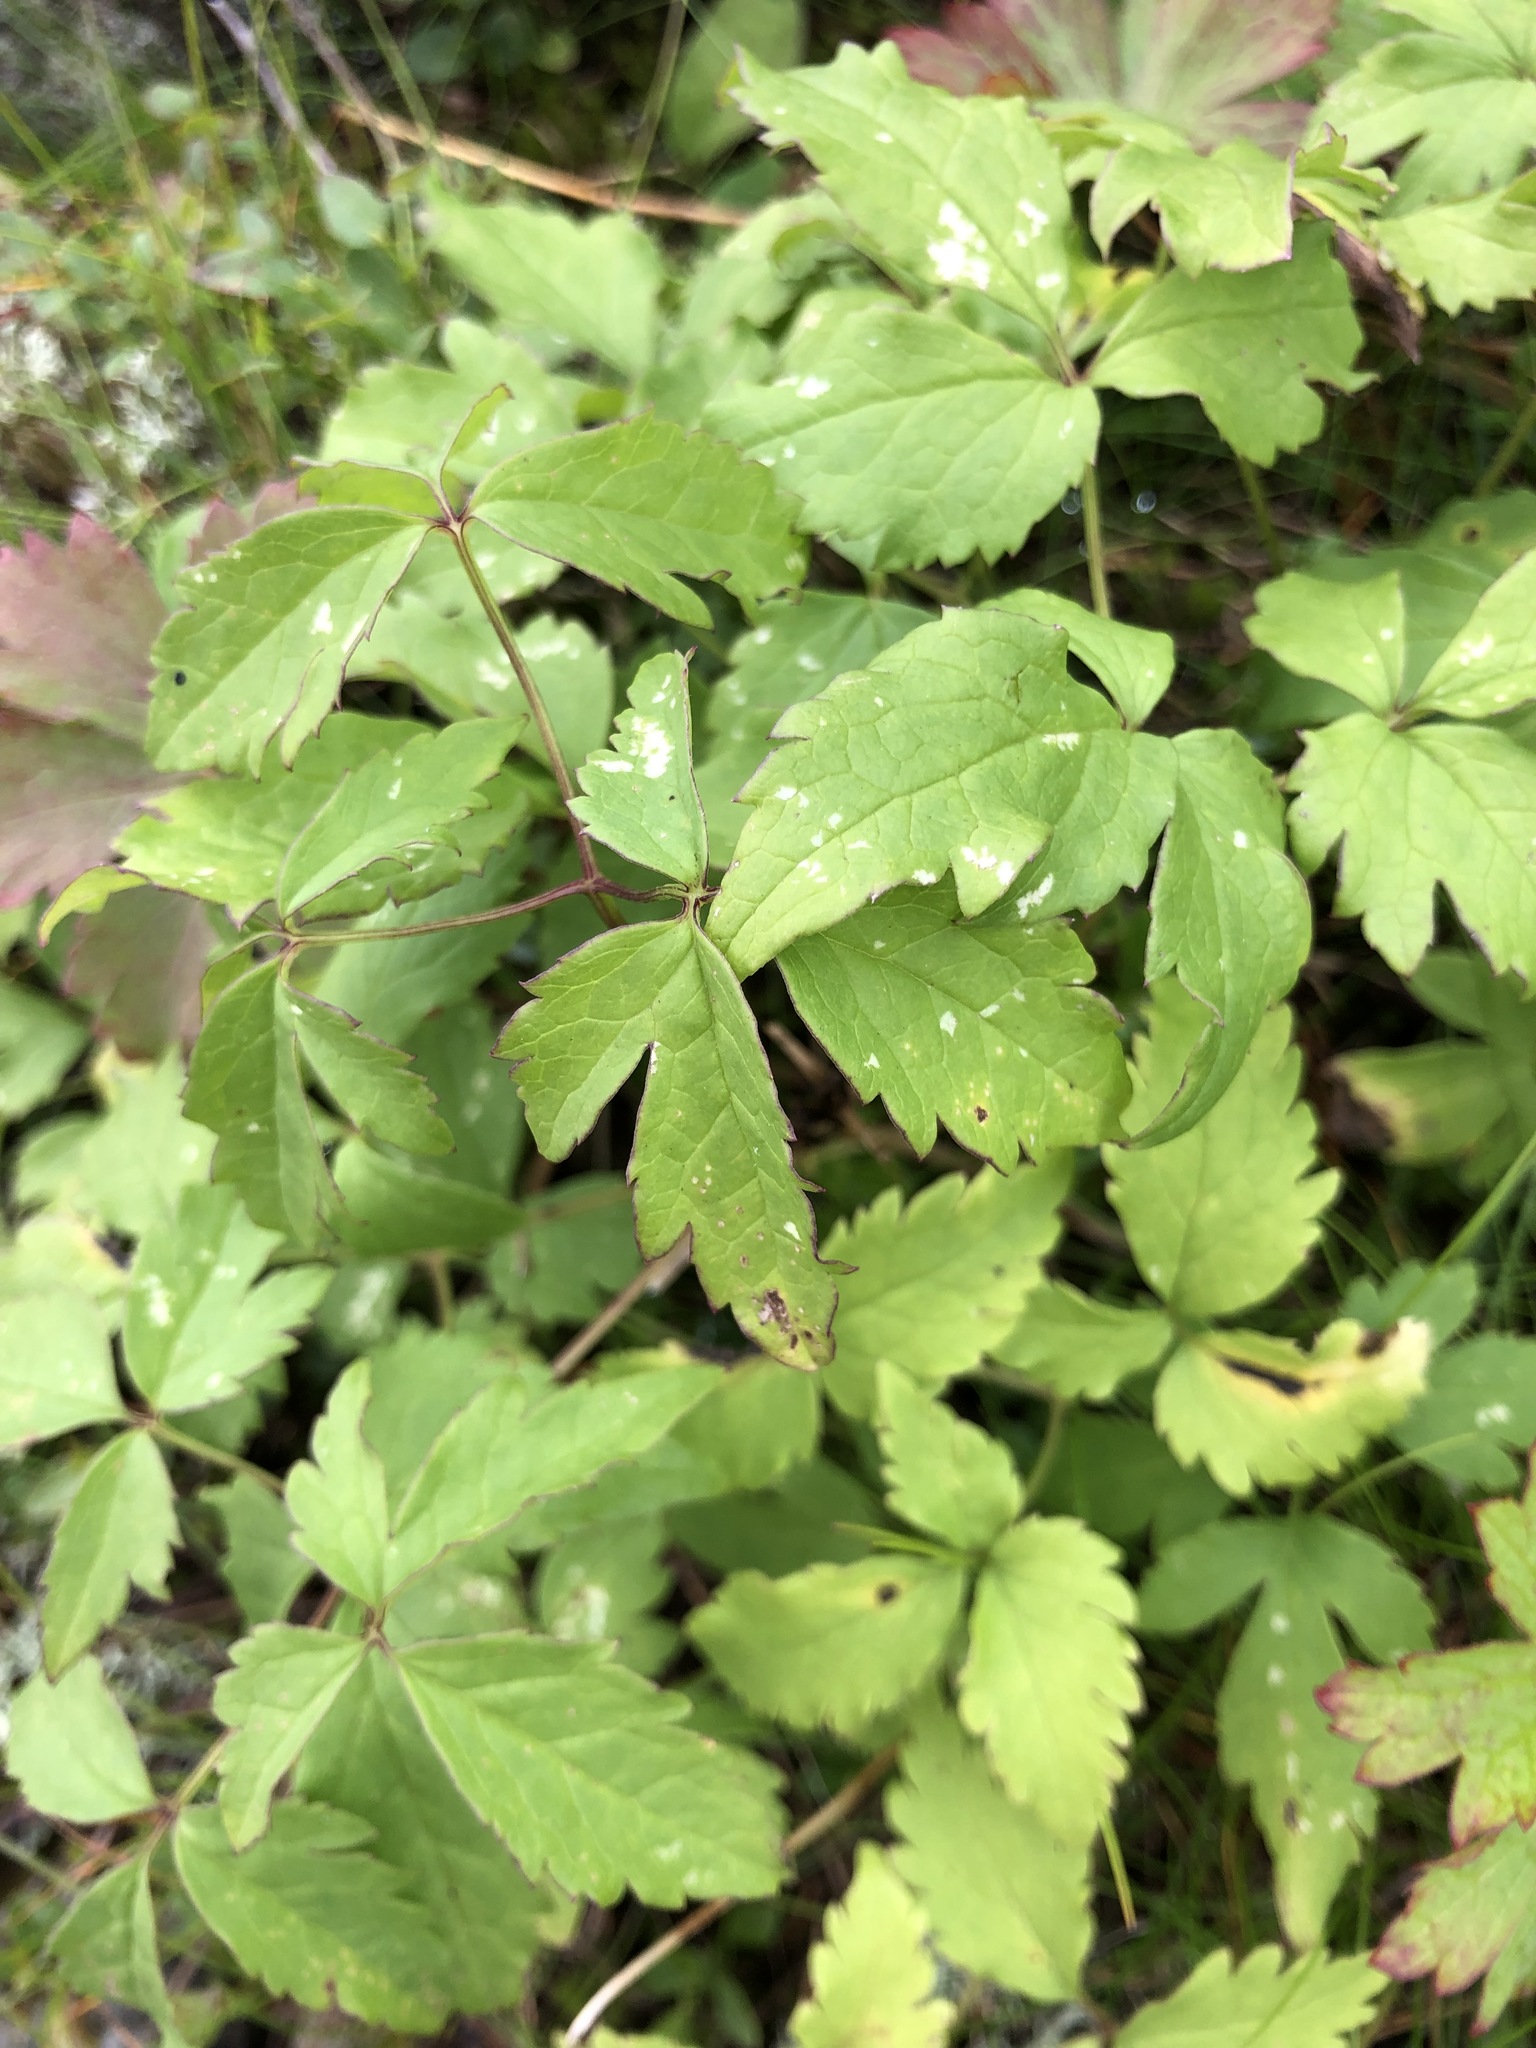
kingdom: Plantae
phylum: Tracheophyta
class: Magnoliopsida
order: Ranunculales
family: Ranunculaceae
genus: Clematis
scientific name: Clematis sibirica
